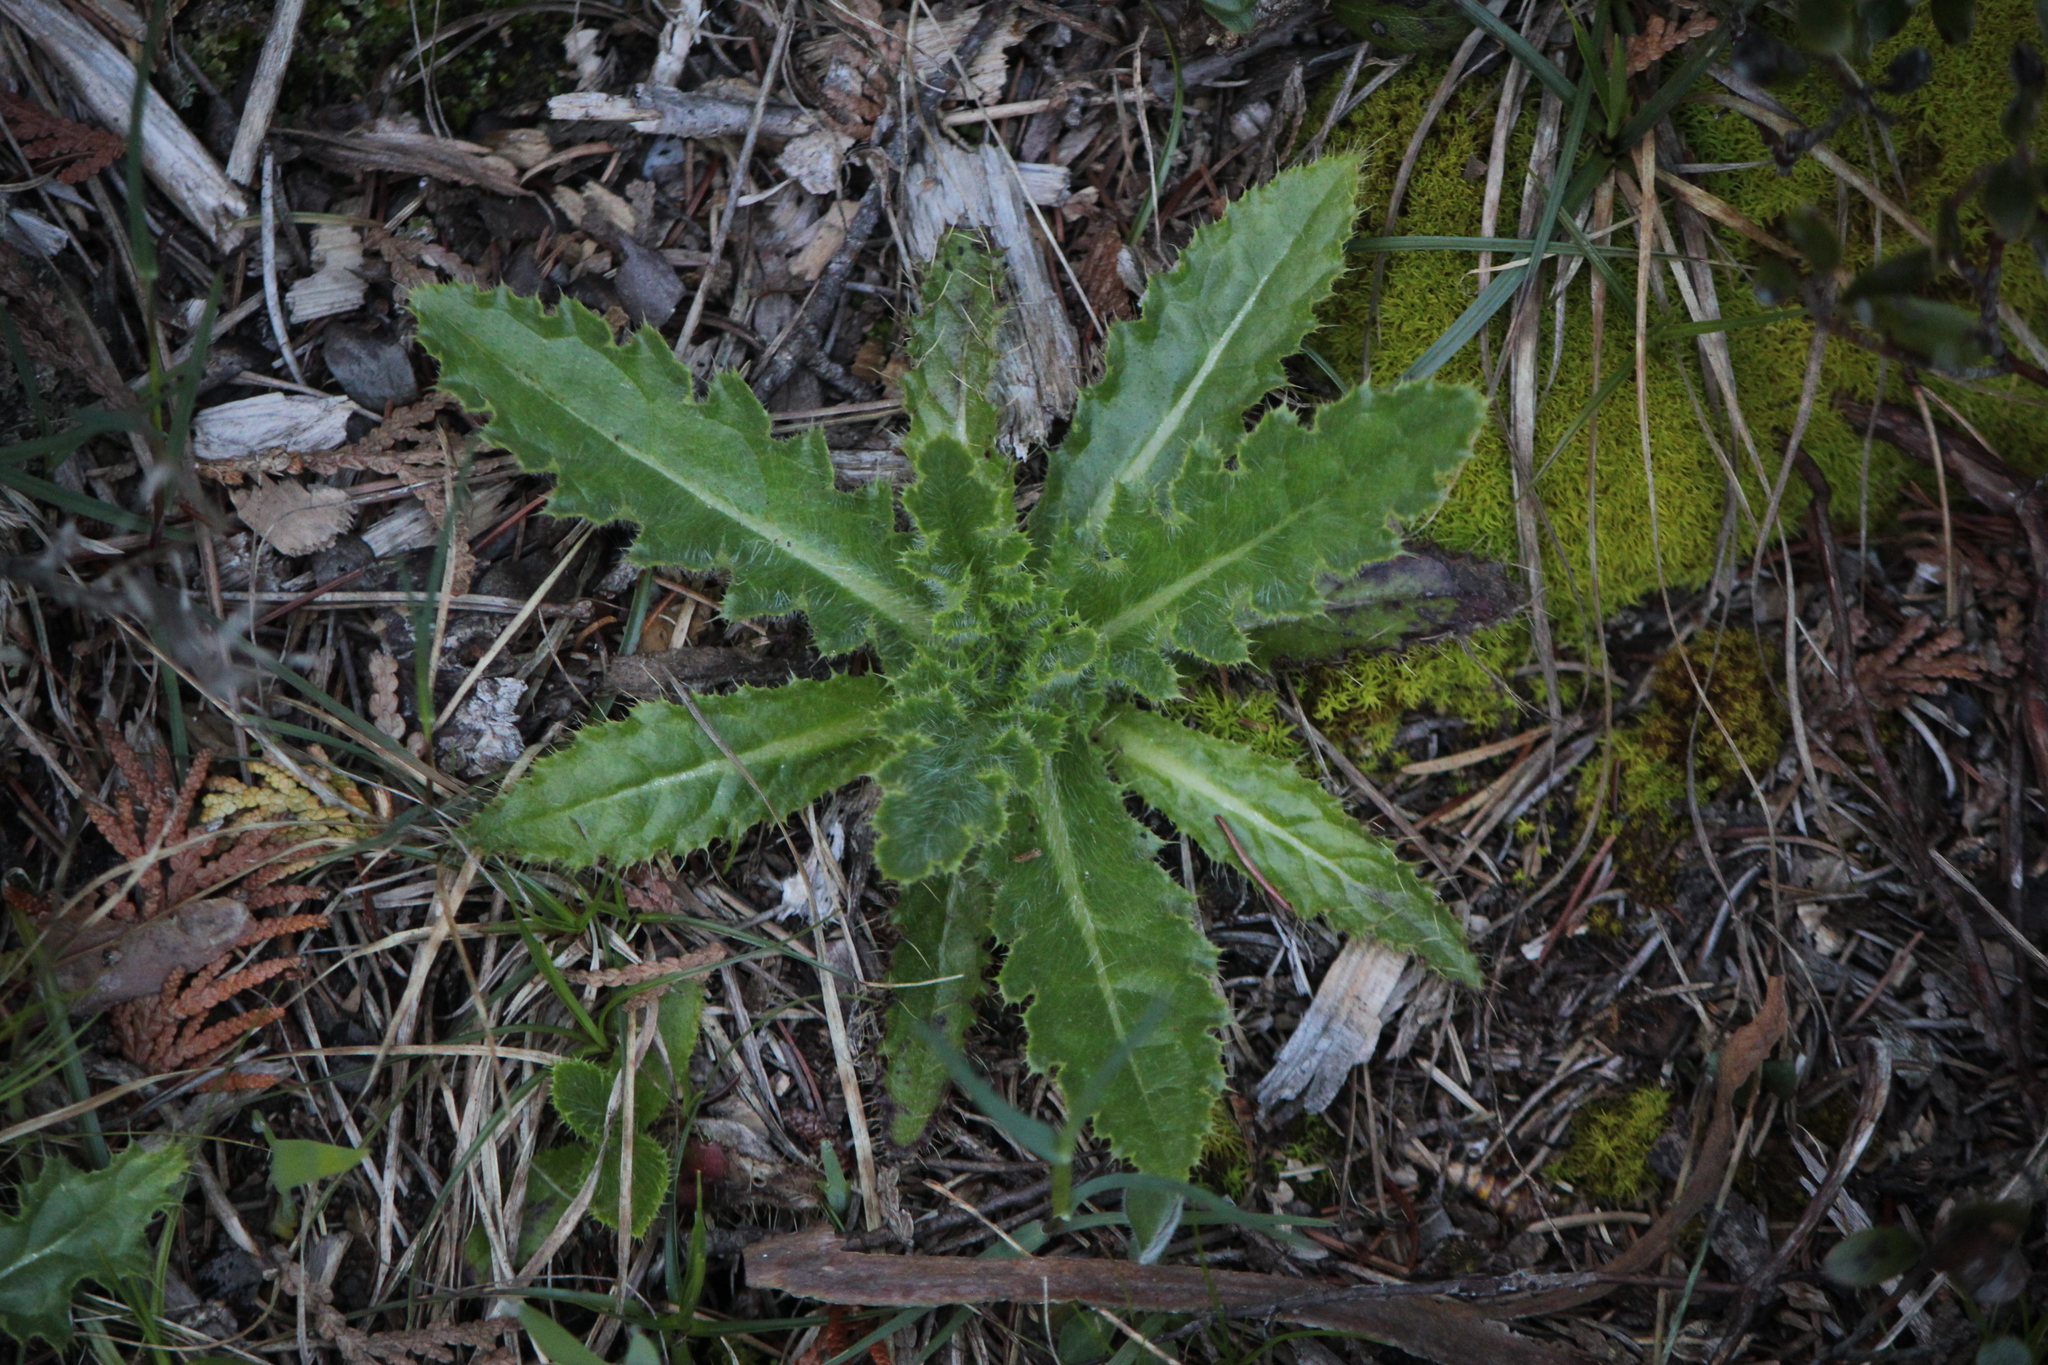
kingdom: Plantae
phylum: Tracheophyta
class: Magnoliopsida
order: Asterales
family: Asteraceae
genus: Cirsium
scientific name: Cirsium pumilum
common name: Pasture thistle
